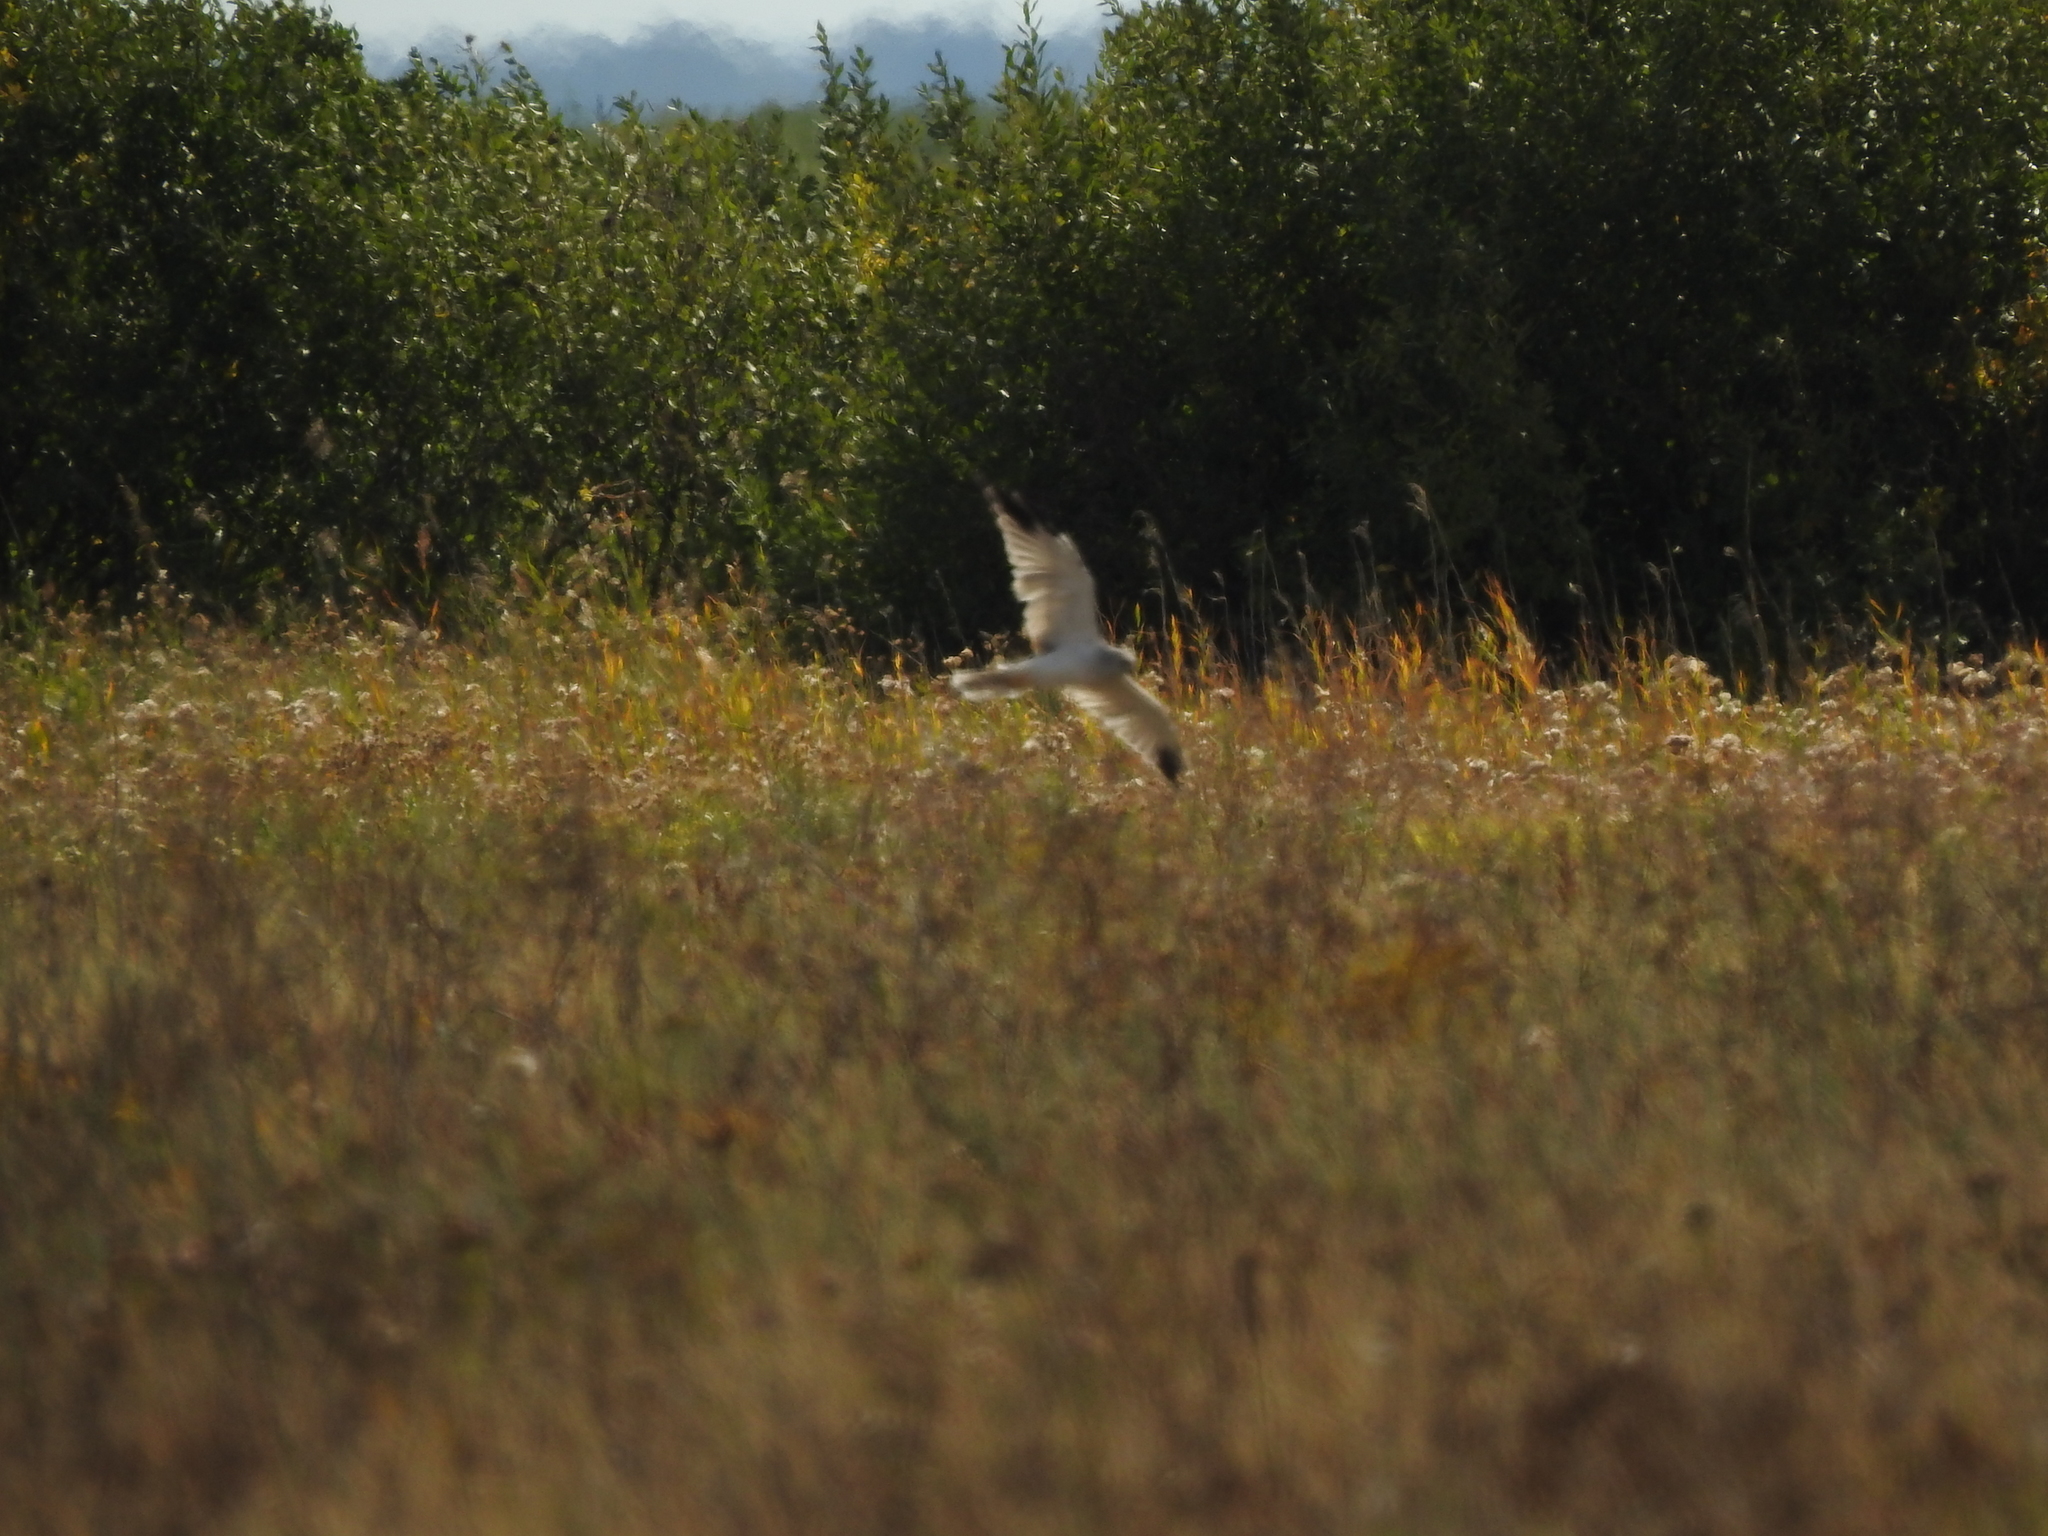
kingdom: Animalia
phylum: Chordata
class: Aves
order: Accipitriformes
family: Accipitridae
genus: Circus
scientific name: Circus macrourus
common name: Pallid harrier
